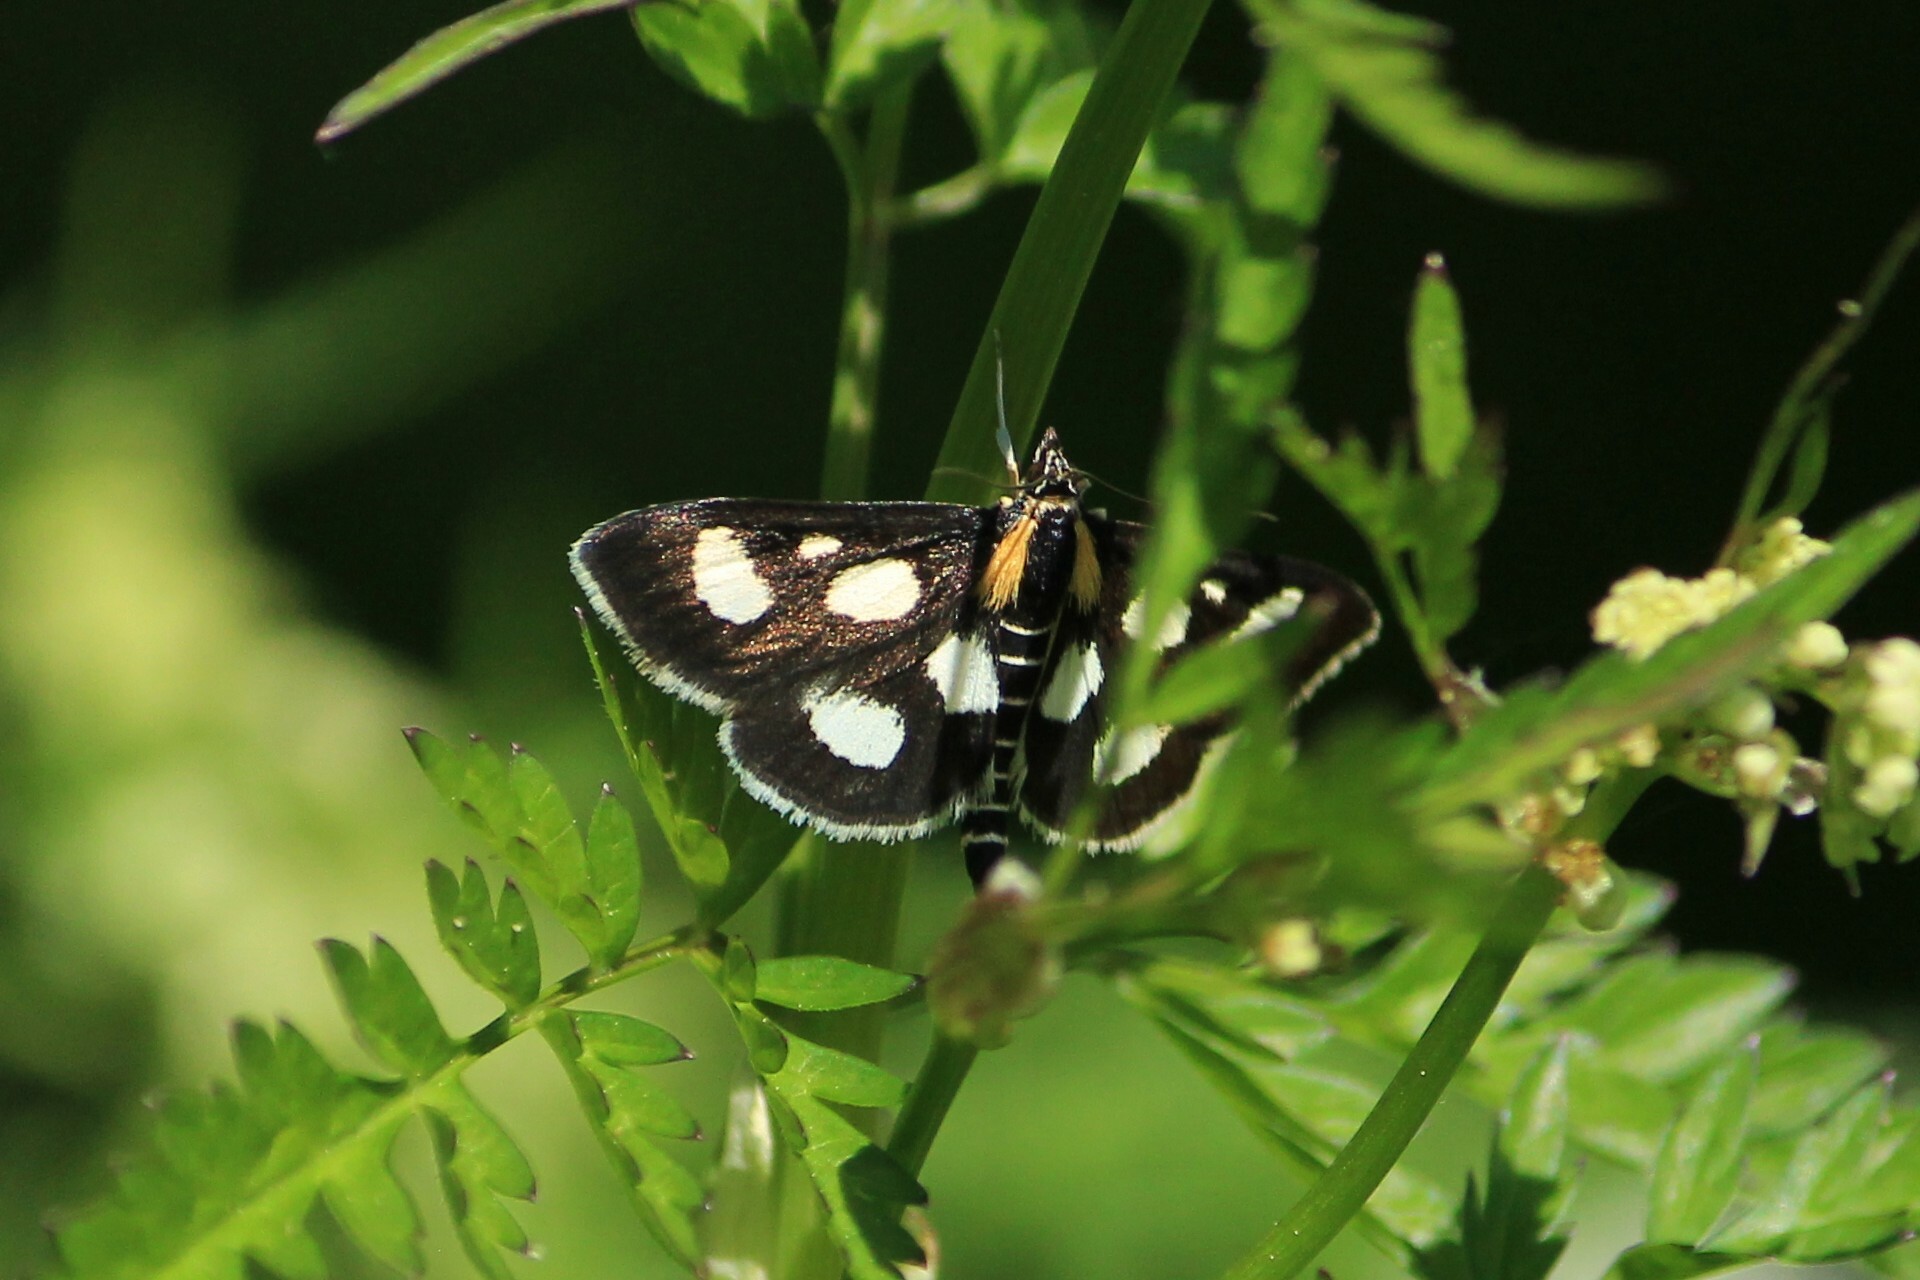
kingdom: Animalia
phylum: Arthropoda
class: Insecta
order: Lepidoptera
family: Crambidae
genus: Anania
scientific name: Anania funebris
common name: White-spotted sable moth
